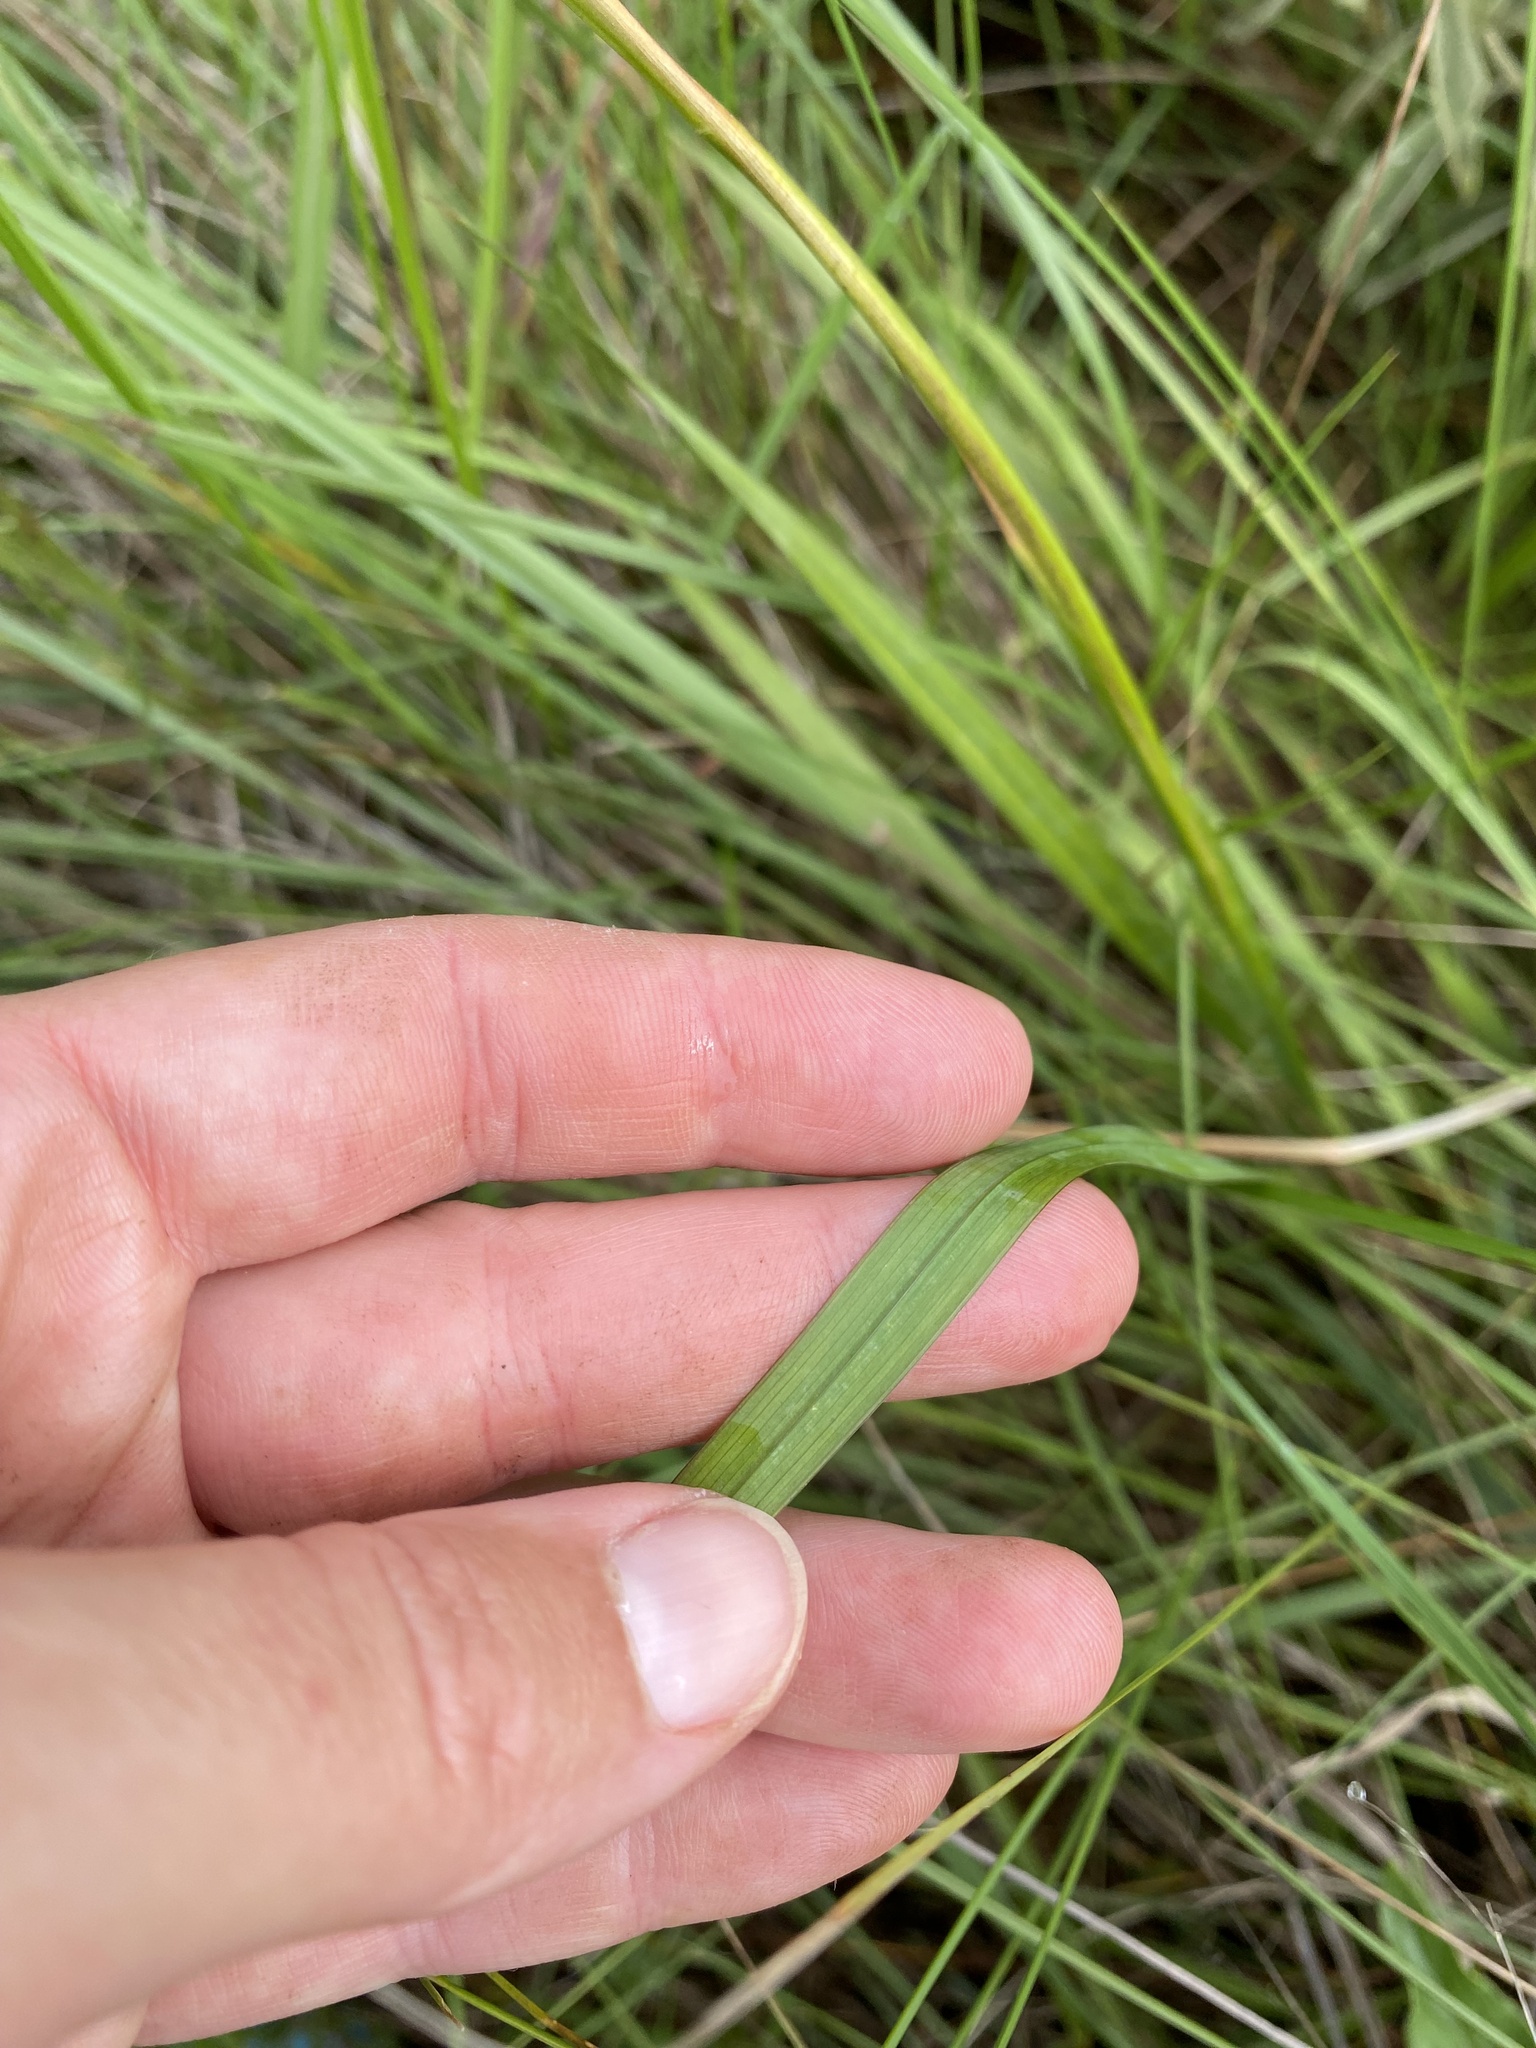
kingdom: Plantae
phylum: Tracheophyta
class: Liliopsida
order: Asparagales
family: Iridaceae
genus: Tritonia
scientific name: Tritonia gladiolaris
